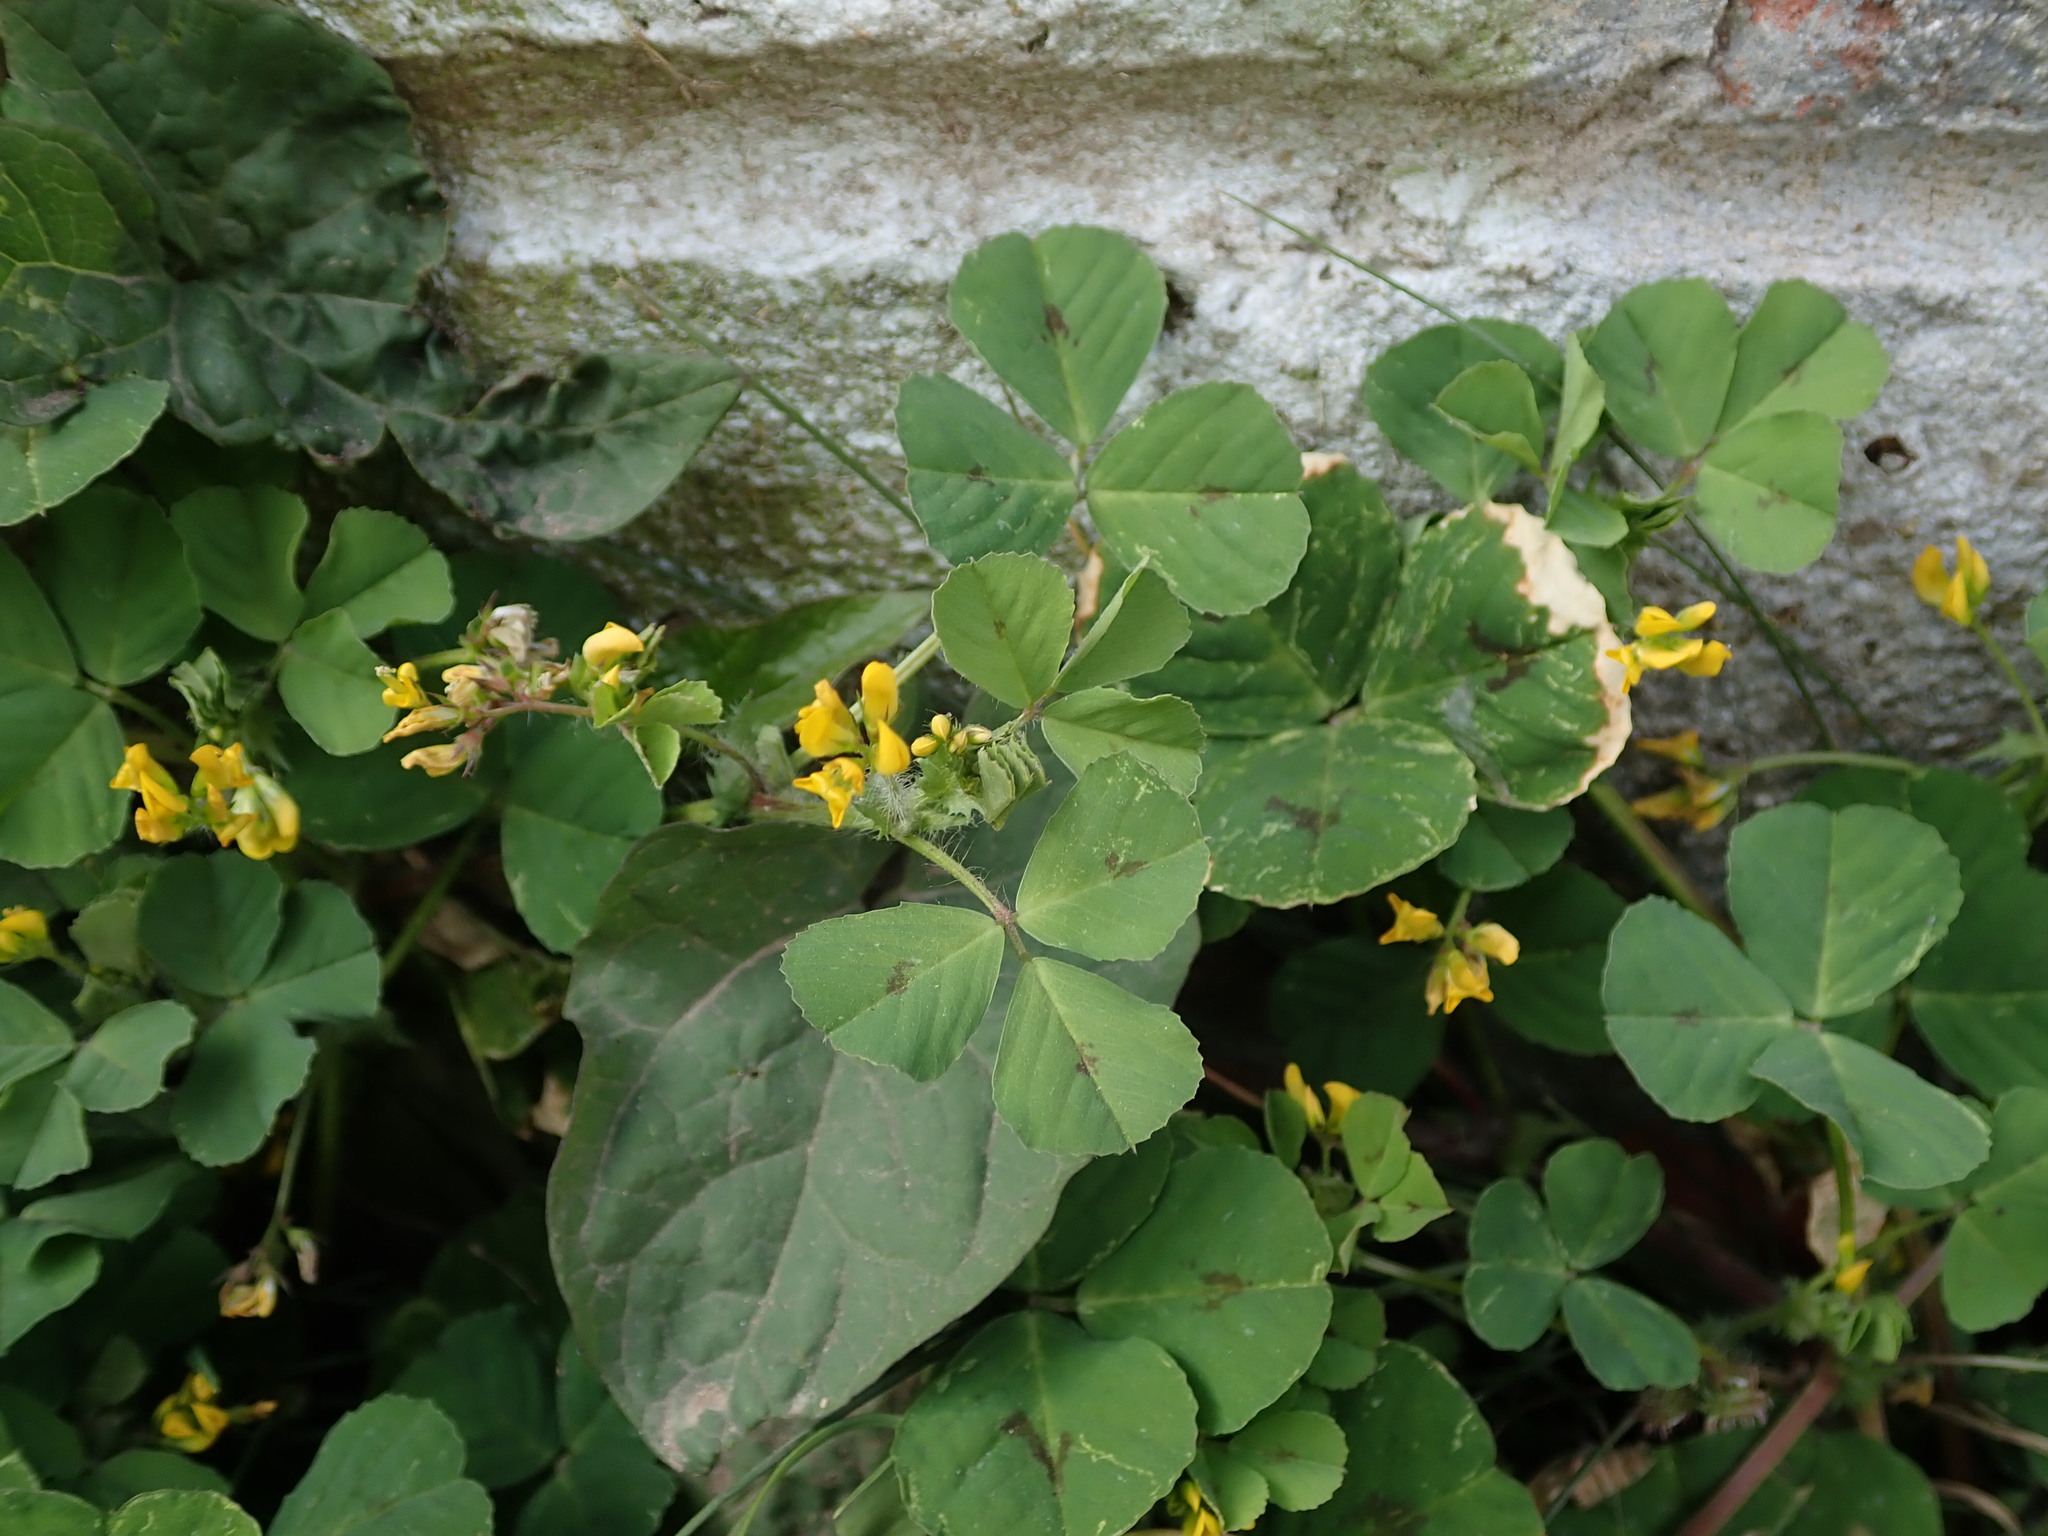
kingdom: Plantae
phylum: Tracheophyta
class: Magnoliopsida
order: Fabales
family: Fabaceae
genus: Medicago
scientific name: Medicago arabica
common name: Spotted medick
